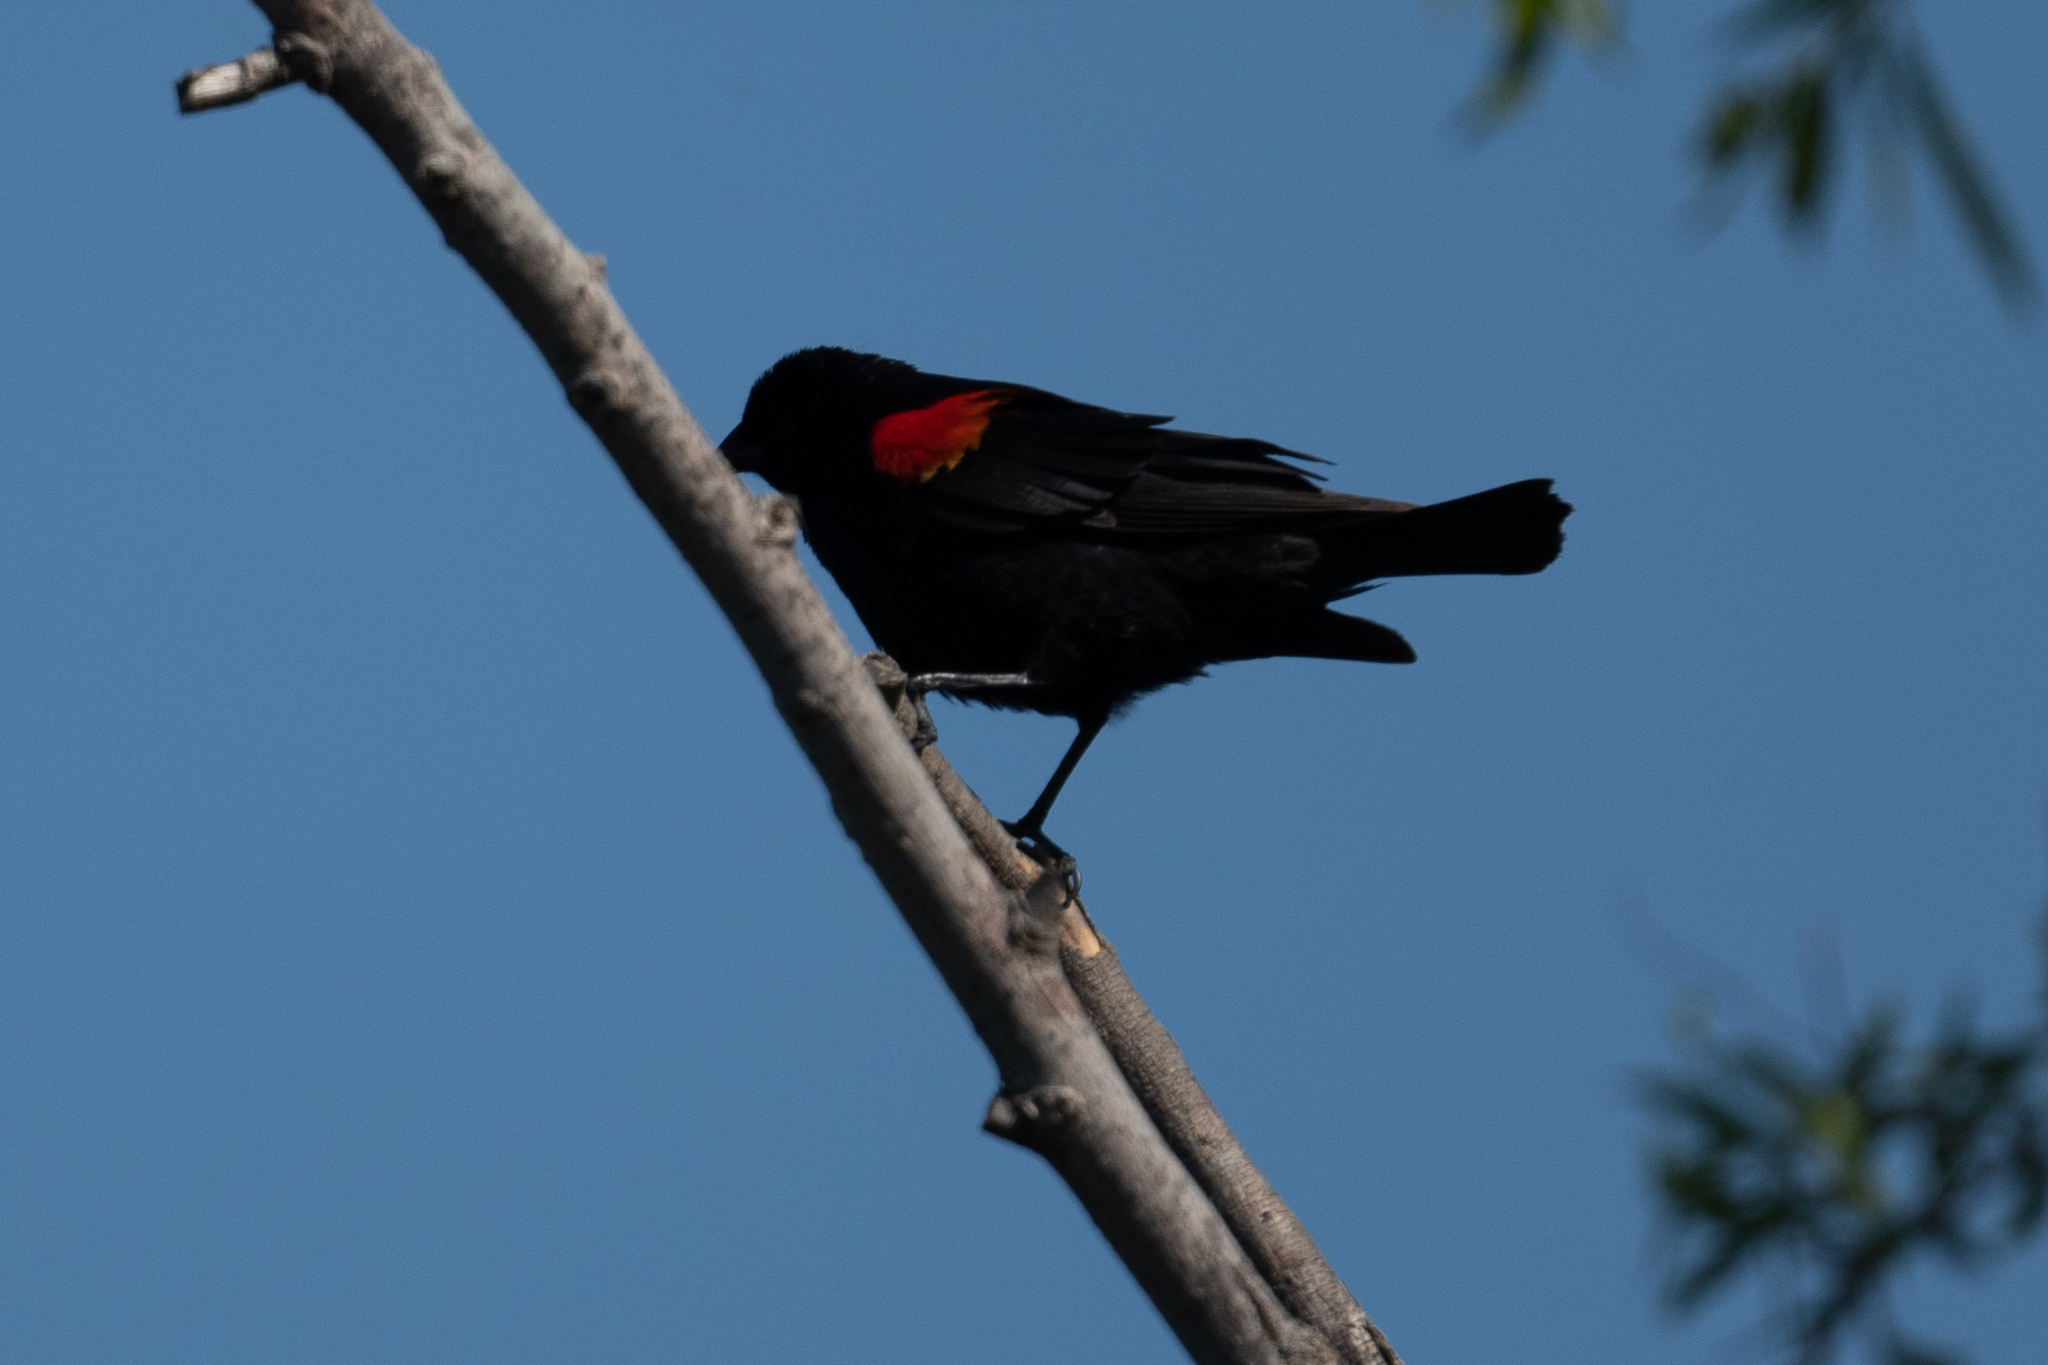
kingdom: Animalia
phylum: Chordata
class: Aves
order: Passeriformes
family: Icteridae
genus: Agelaius
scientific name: Agelaius phoeniceus
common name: Red-winged blackbird
